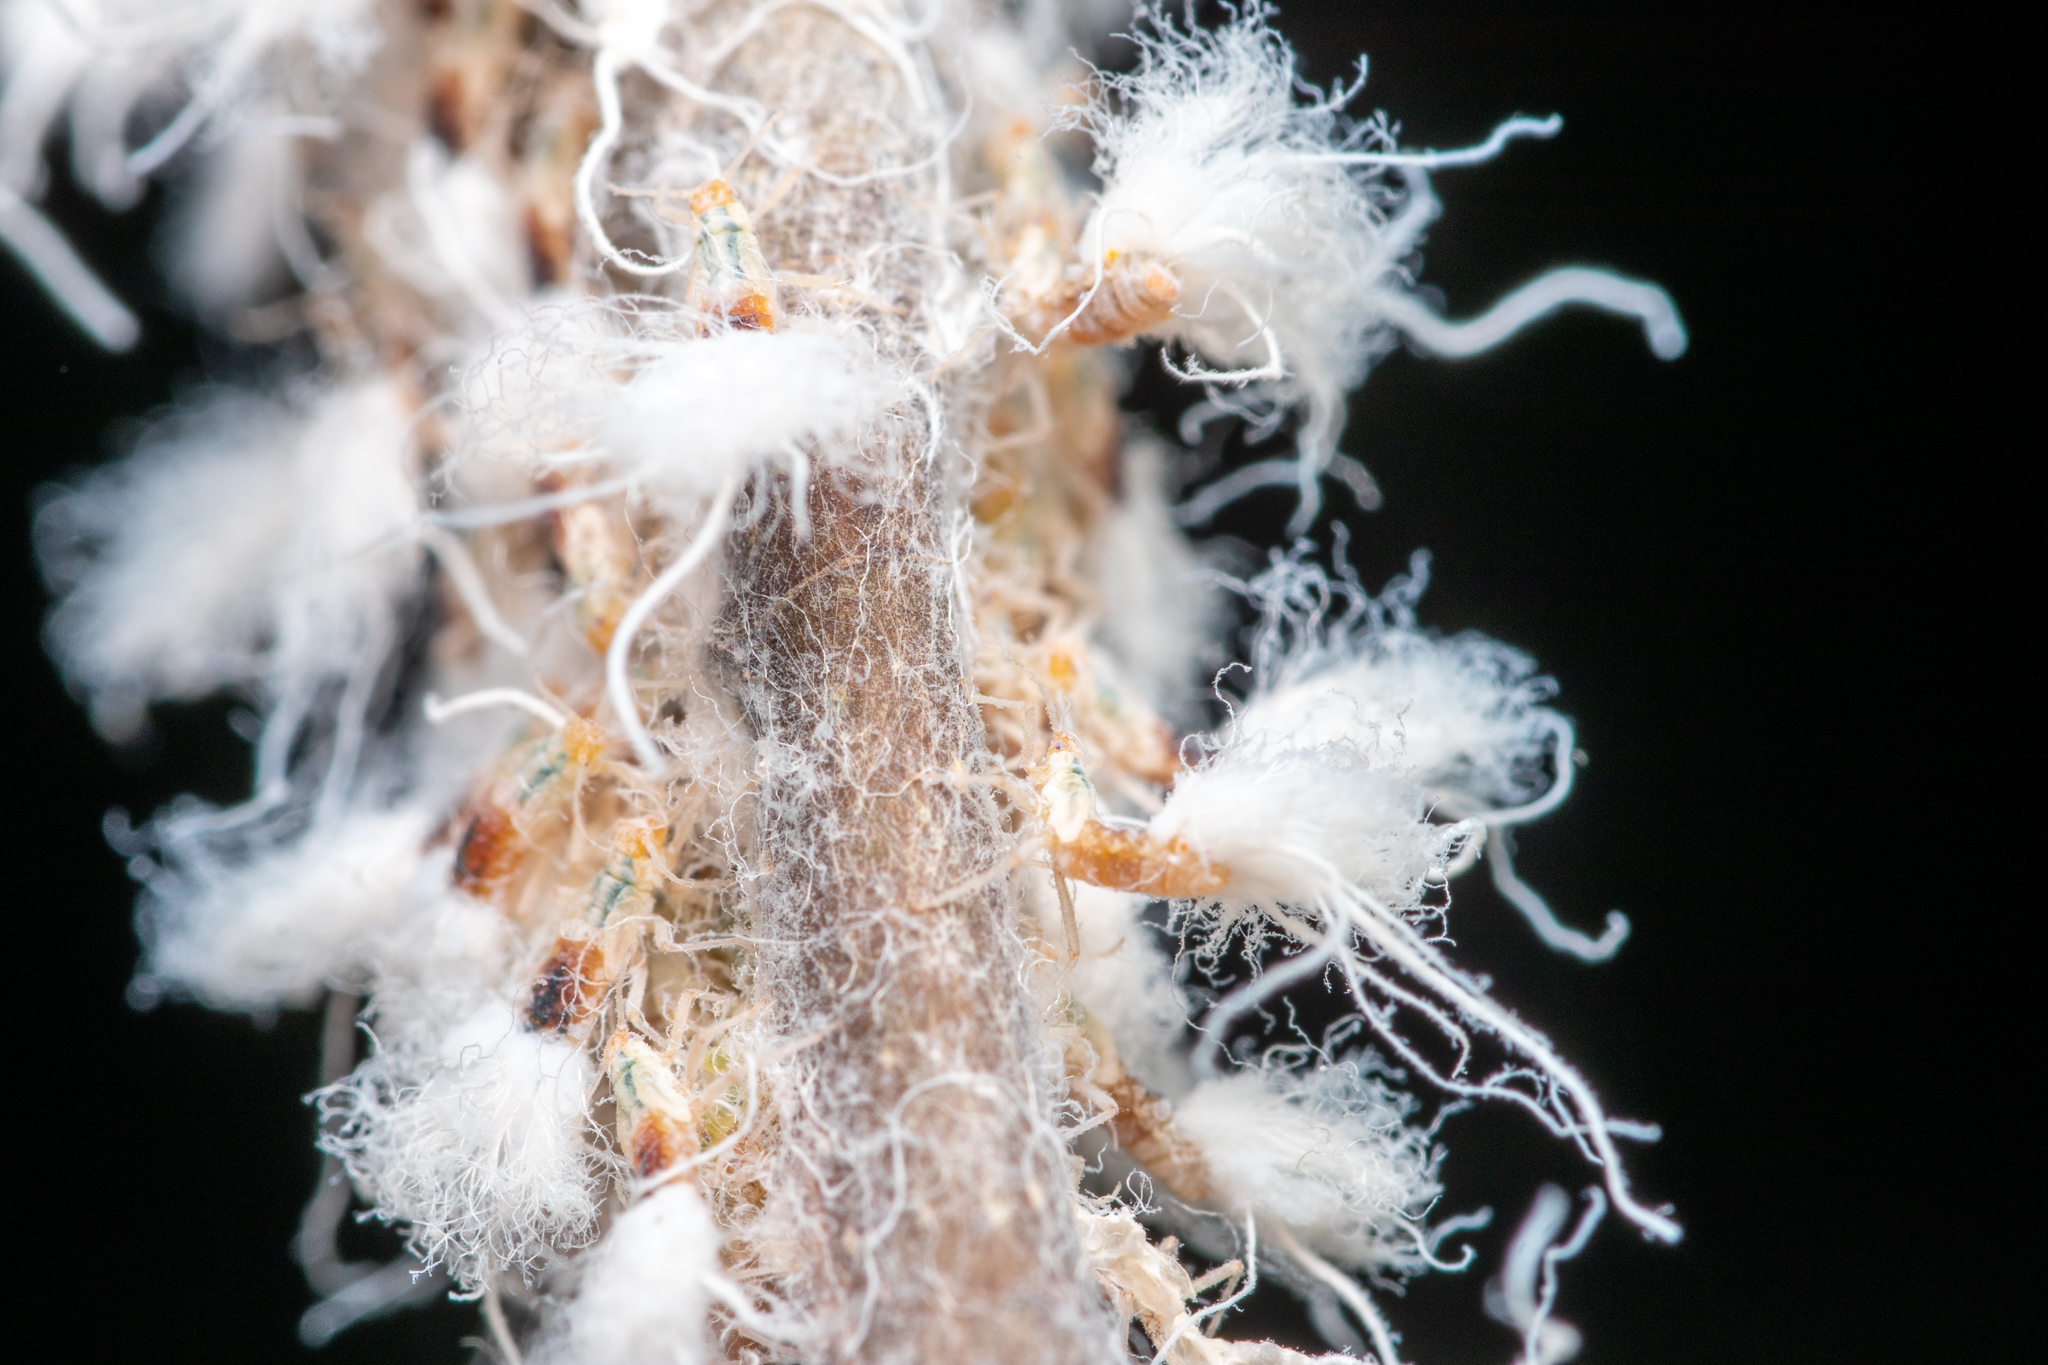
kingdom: Animalia
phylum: Arthropoda
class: Insecta
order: Hemiptera
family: Aphididae
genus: Grylloprociphilus
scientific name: Grylloprociphilus imbricator
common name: Beech blight aphid
